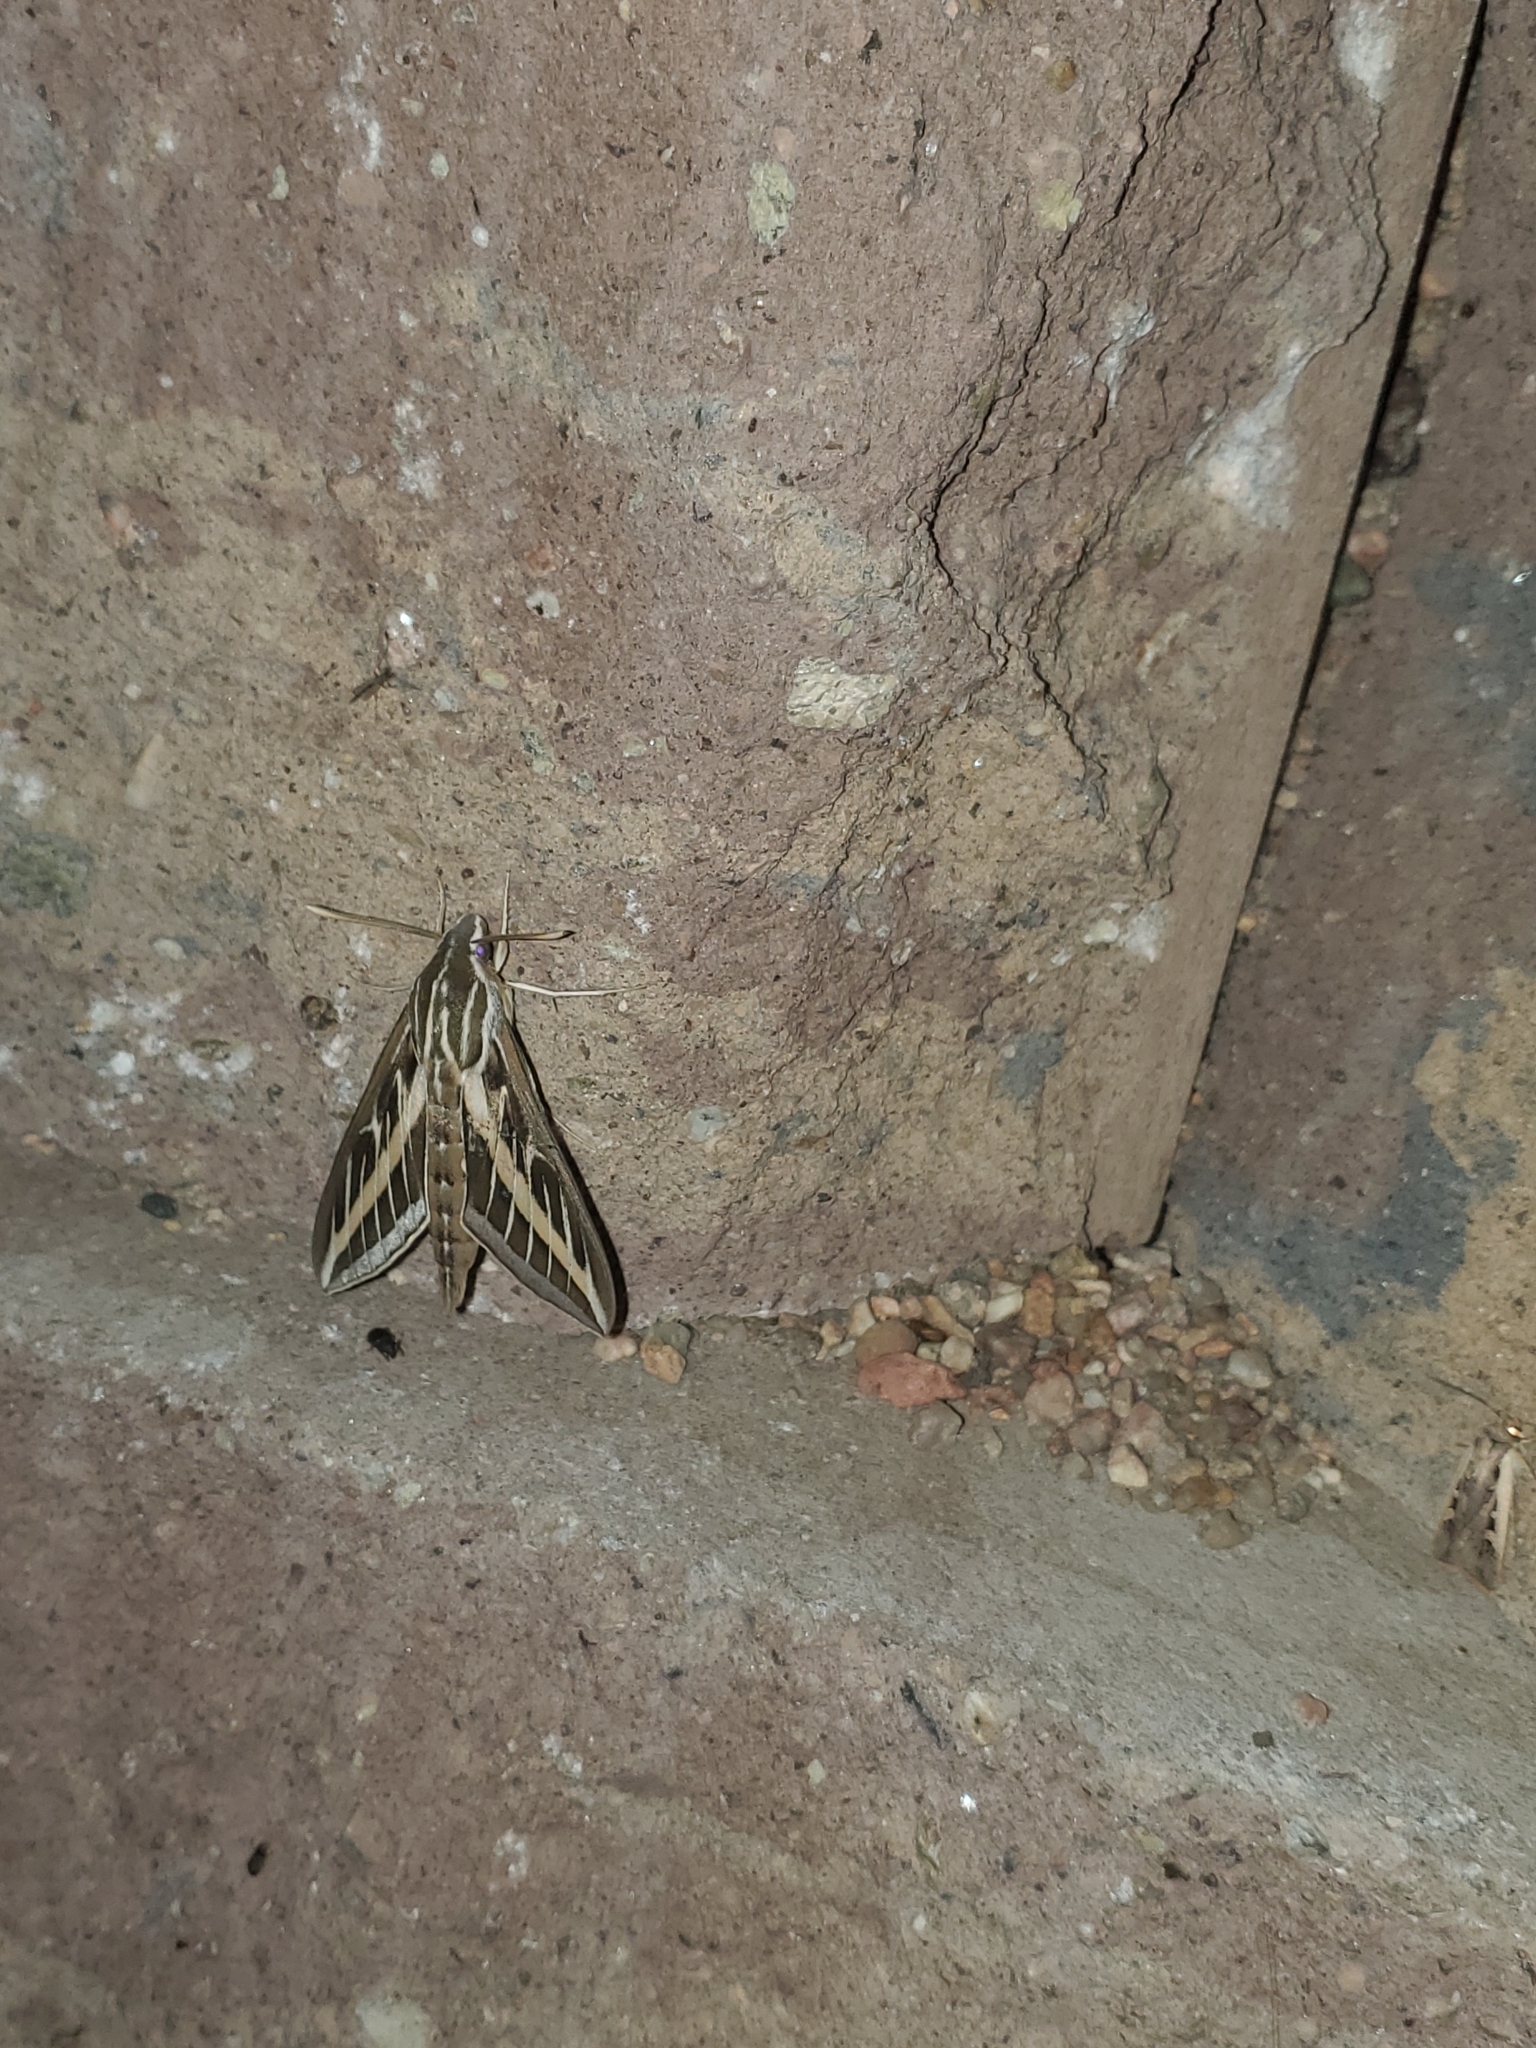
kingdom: Animalia
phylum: Arthropoda
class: Insecta
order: Lepidoptera
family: Sphingidae
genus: Hyles
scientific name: Hyles lineata
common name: White-lined sphinx
